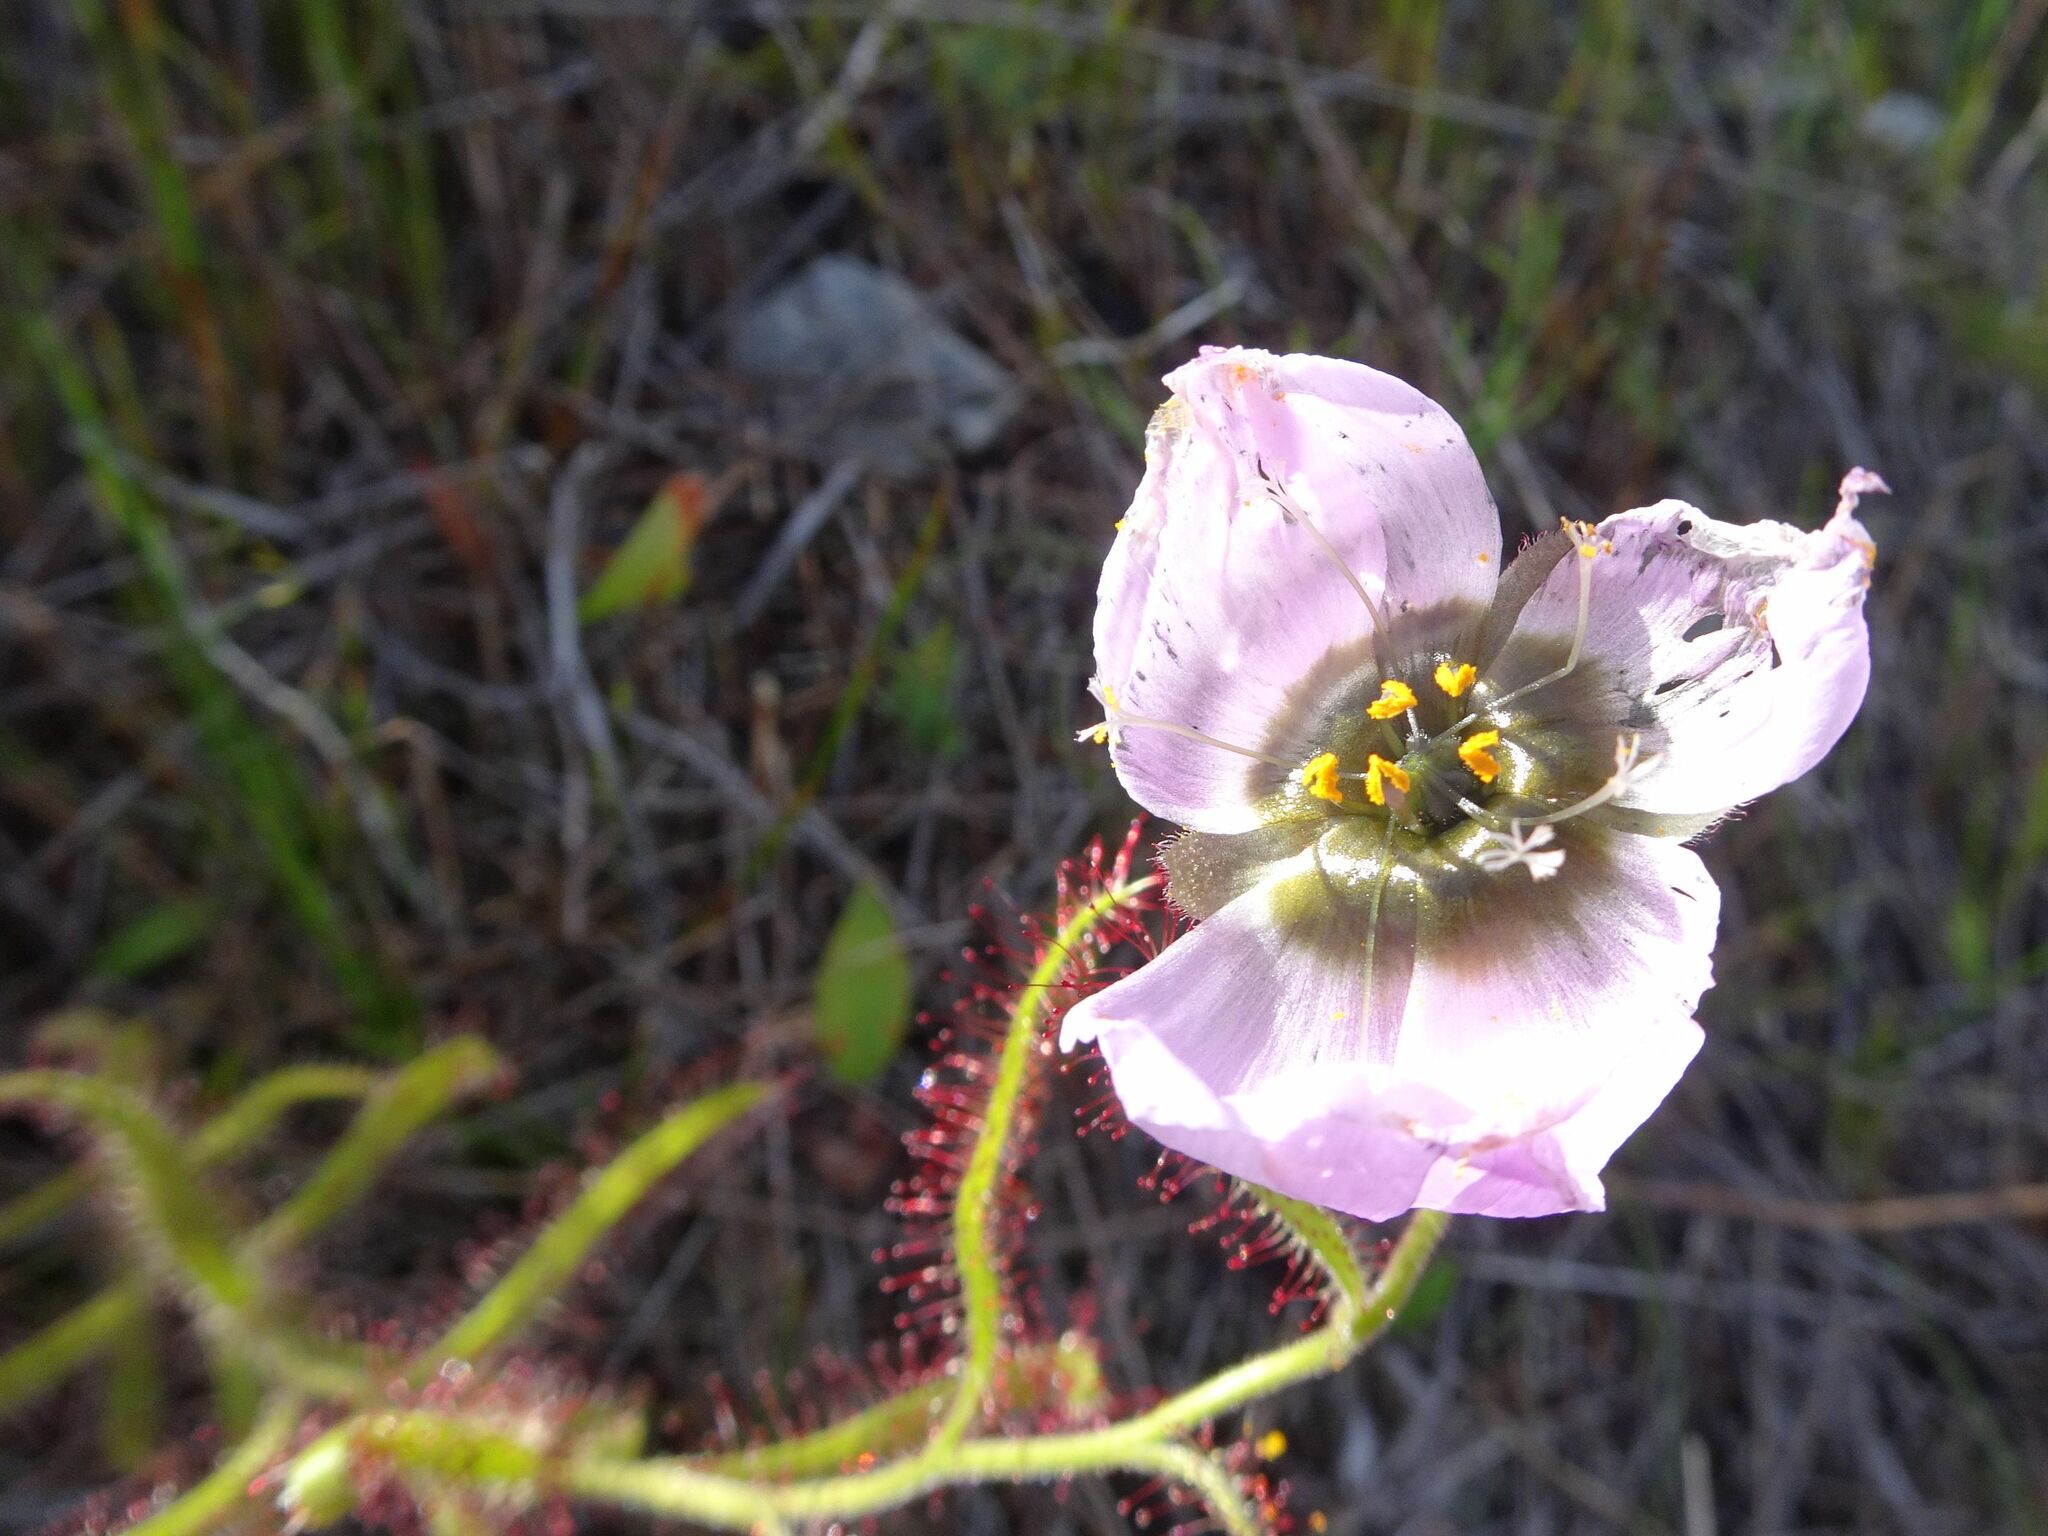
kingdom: Plantae
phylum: Tracheophyta
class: Magnoliopsida
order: Caryophyllales
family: Droseraceae
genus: Drosera
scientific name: Drosera cistiflora
